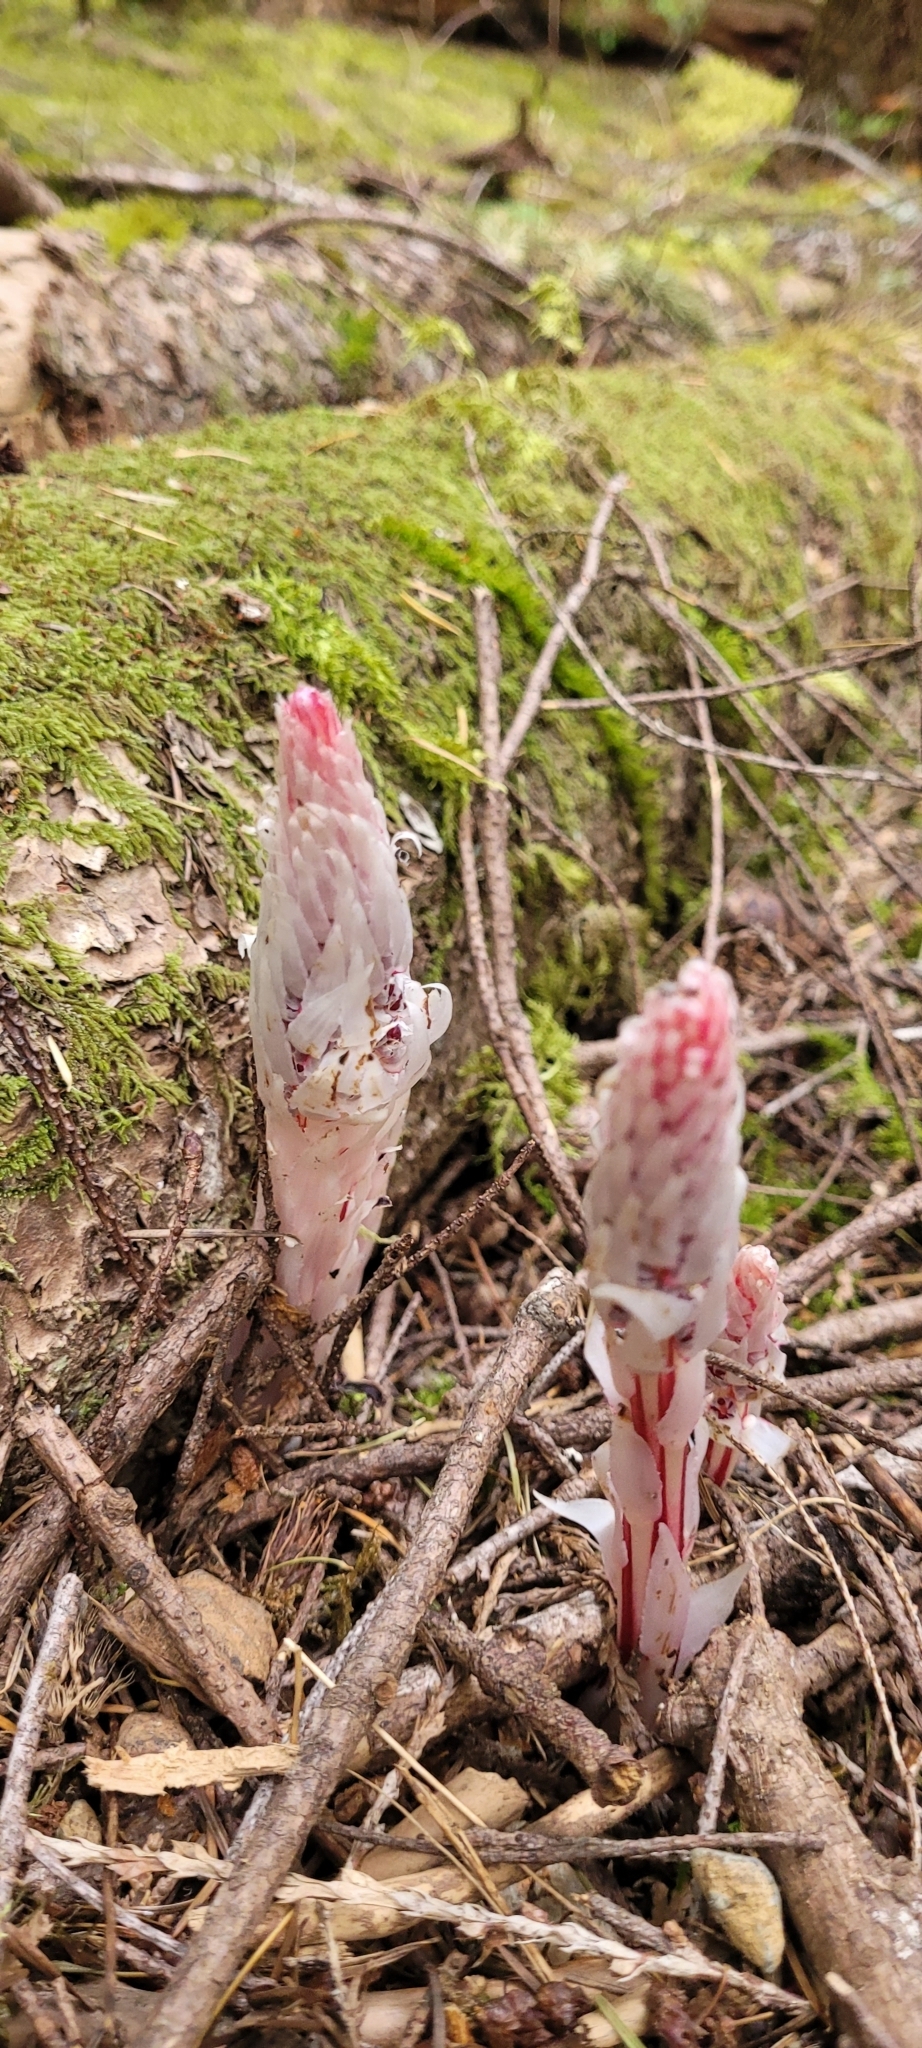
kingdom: Plantae
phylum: Tracheophyta
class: Magnoliopsida
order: Ericales
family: Ericaceae
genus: Allotropa
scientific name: Allotropa virgata
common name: Candy-striped allotropa
